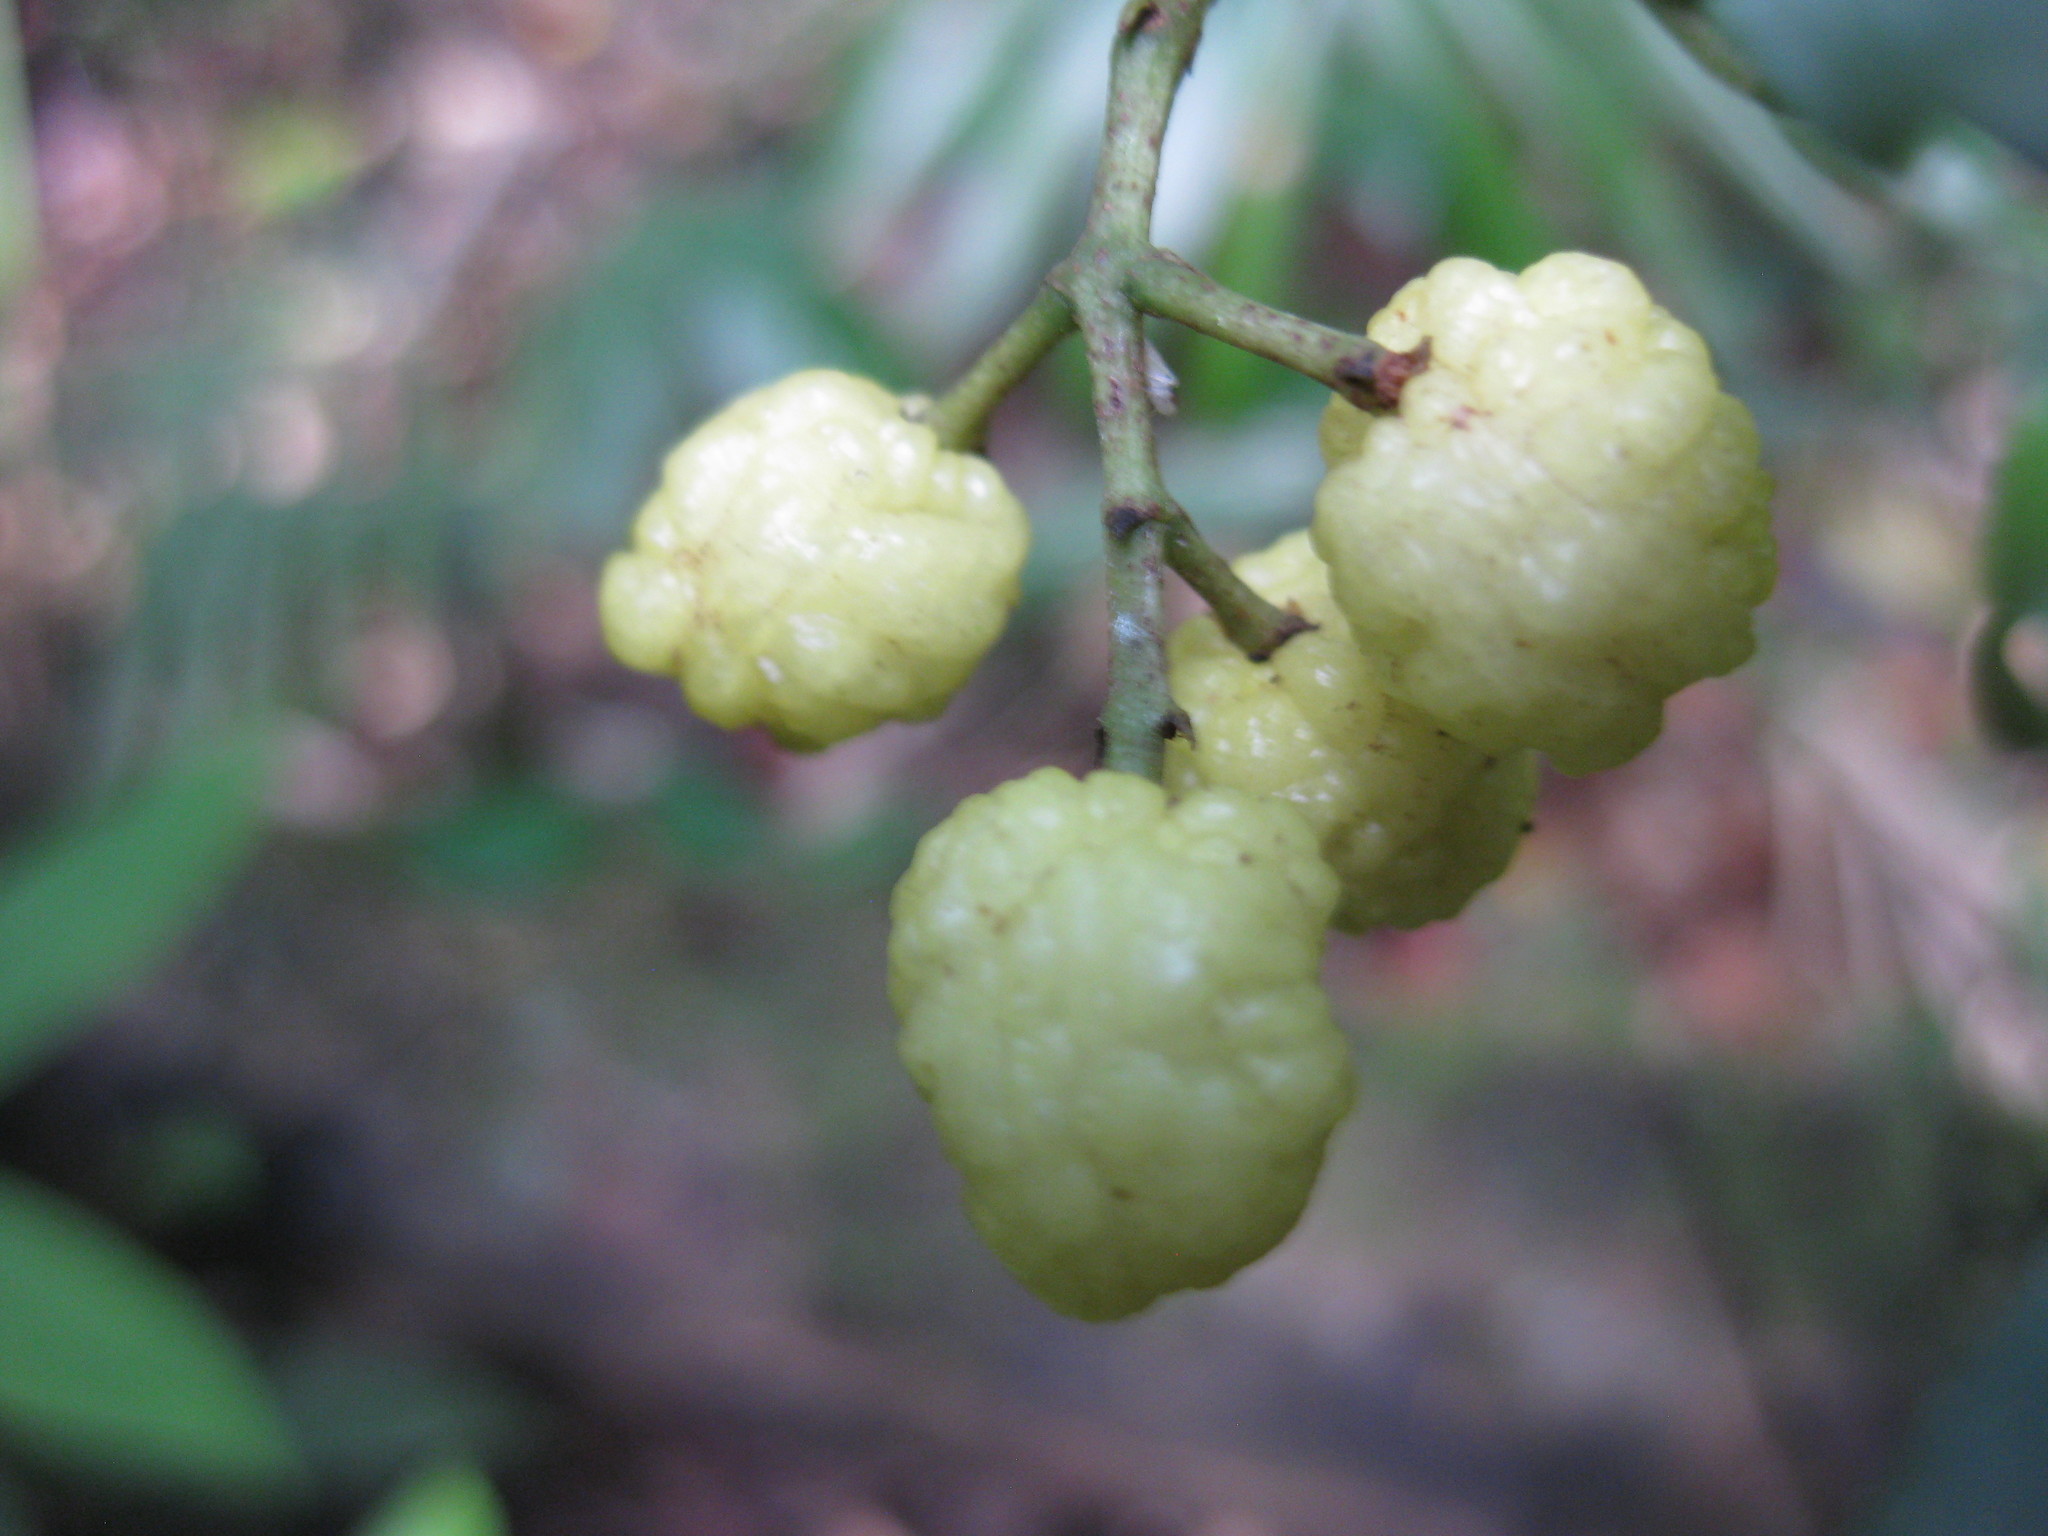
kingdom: Plantae
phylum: Tracheophyta
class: Magnoliopsida
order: Sapindales
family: Rutaceae
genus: Acronychia
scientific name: Acronychia acidula
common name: Lemon-aspen
